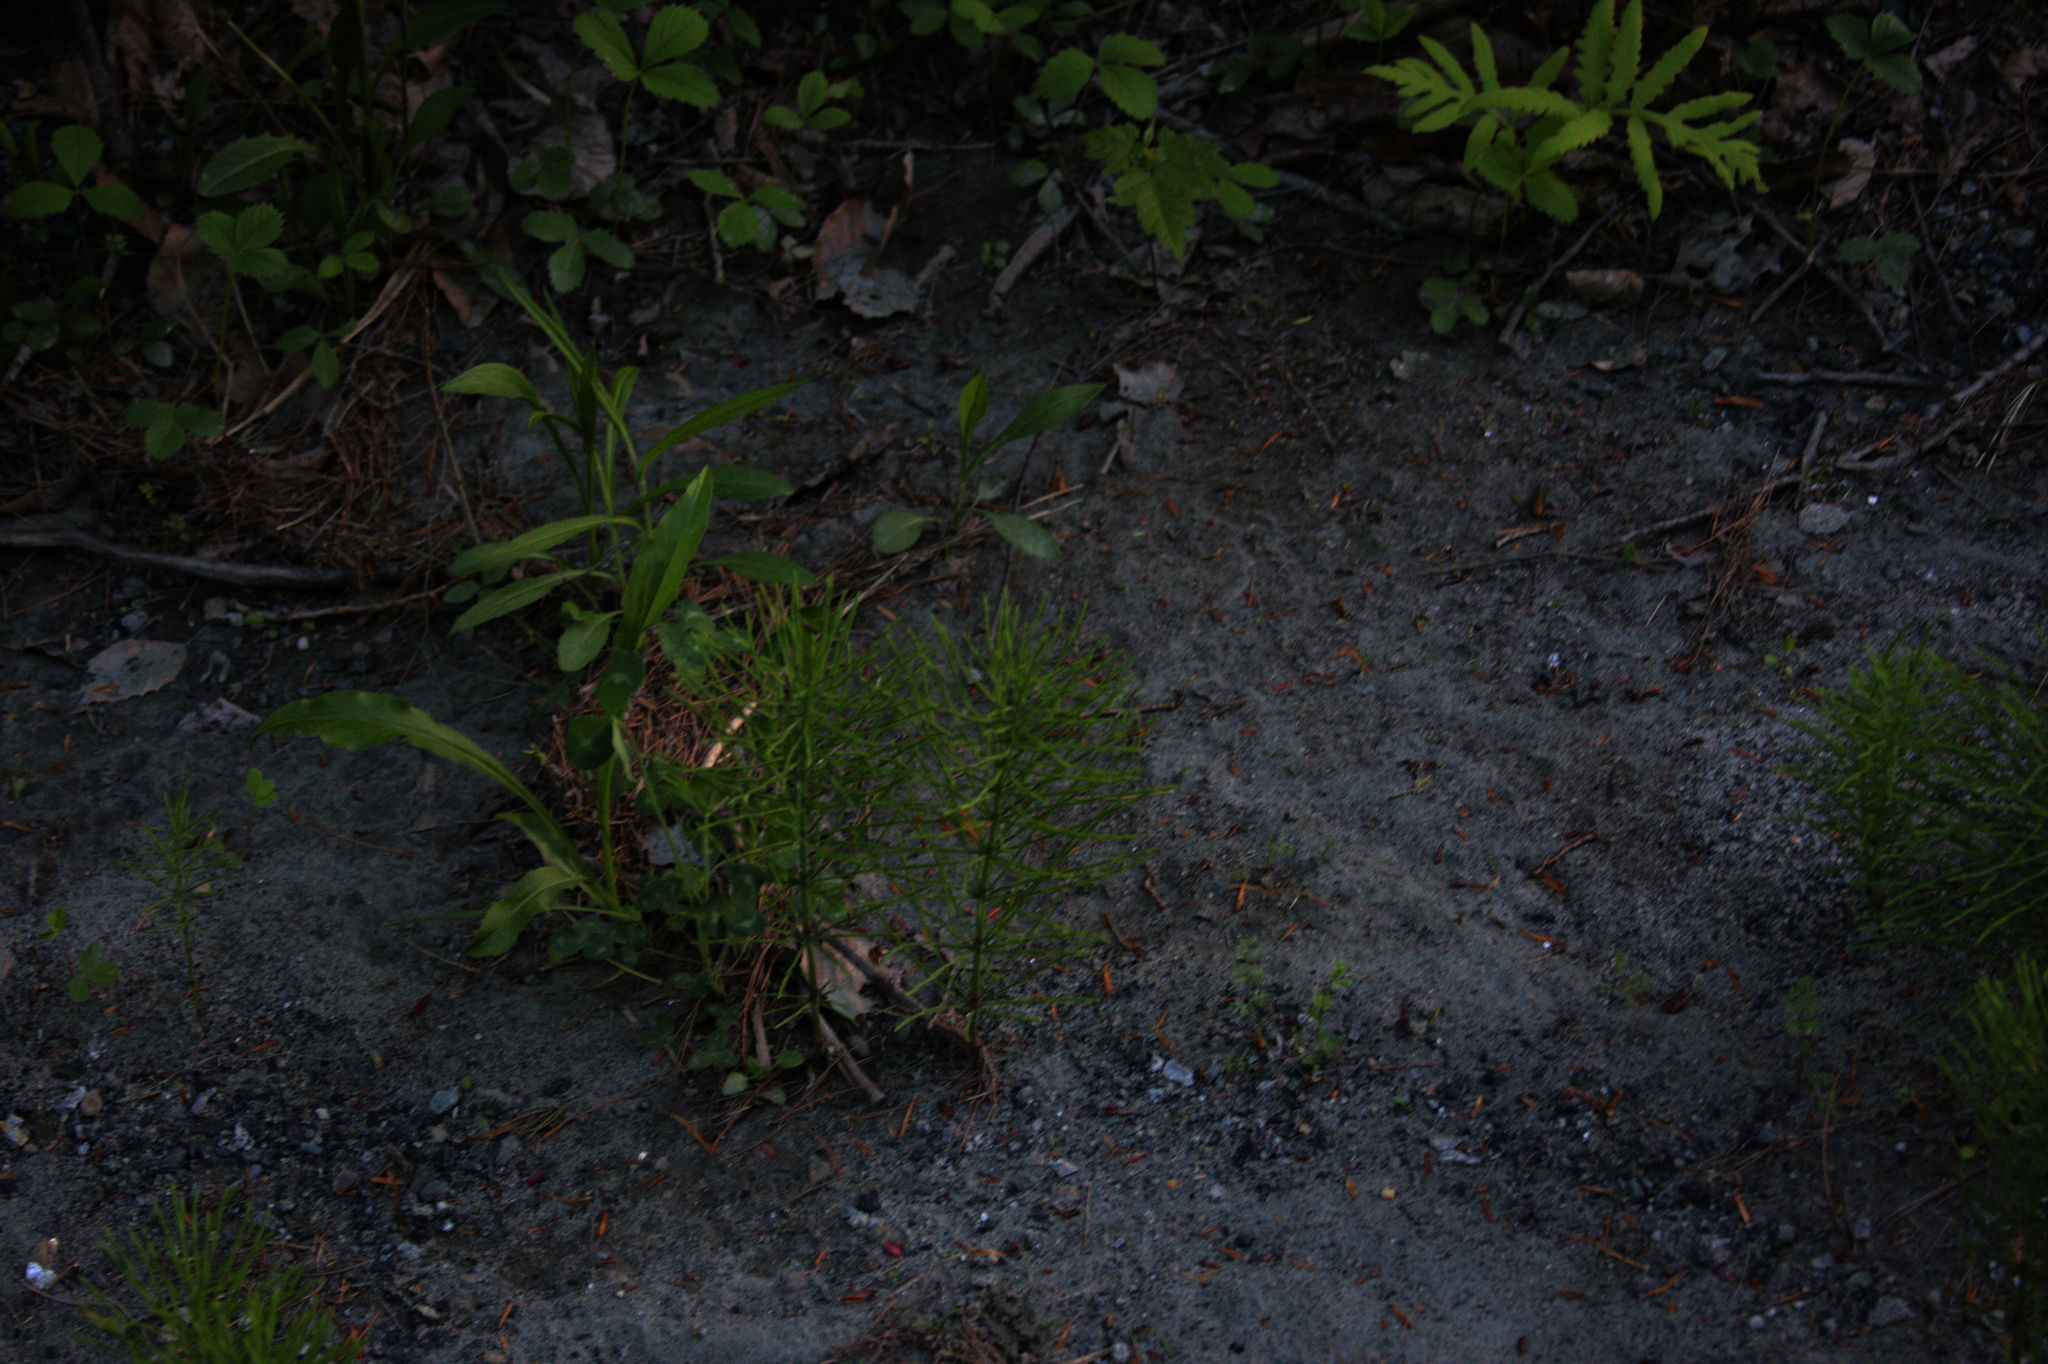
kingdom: Plantae
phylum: Tracheophyta
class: Polypodiopsida
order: Equisetales
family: Equisetaceae
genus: Equisetum
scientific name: Equisetum arvense
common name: Field horsetail
